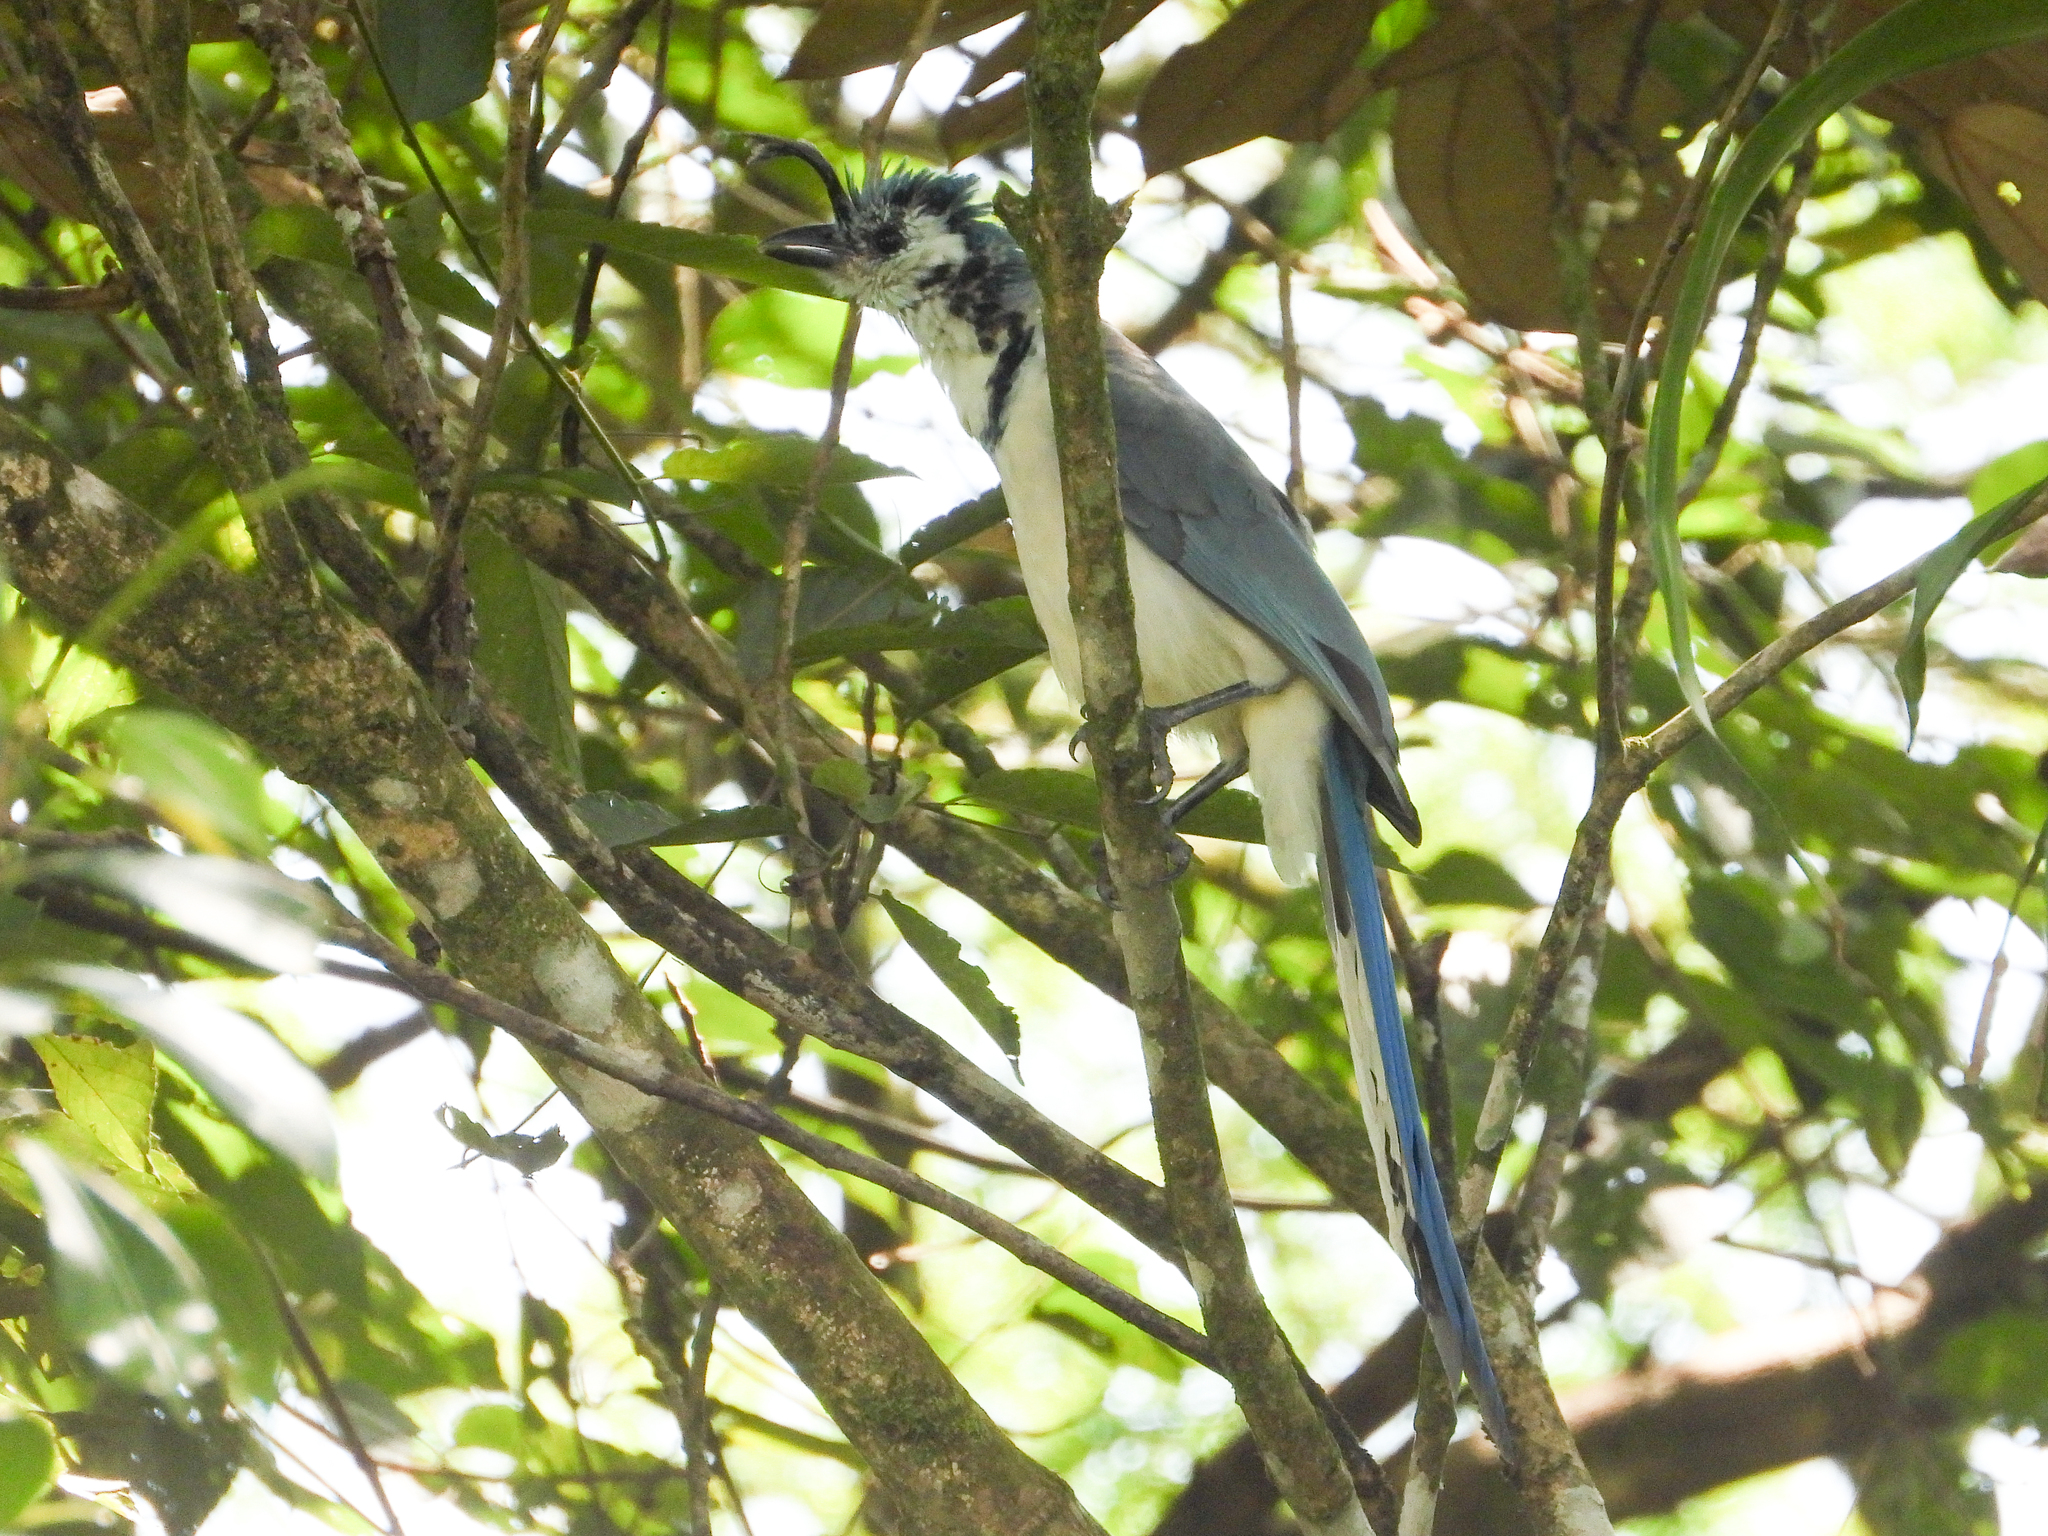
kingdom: Animalia
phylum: Chordata
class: Aves
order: Passeriformes
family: Corvidae
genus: Calocitta
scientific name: Calocitta formosa
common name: White-throated magpie-jay
